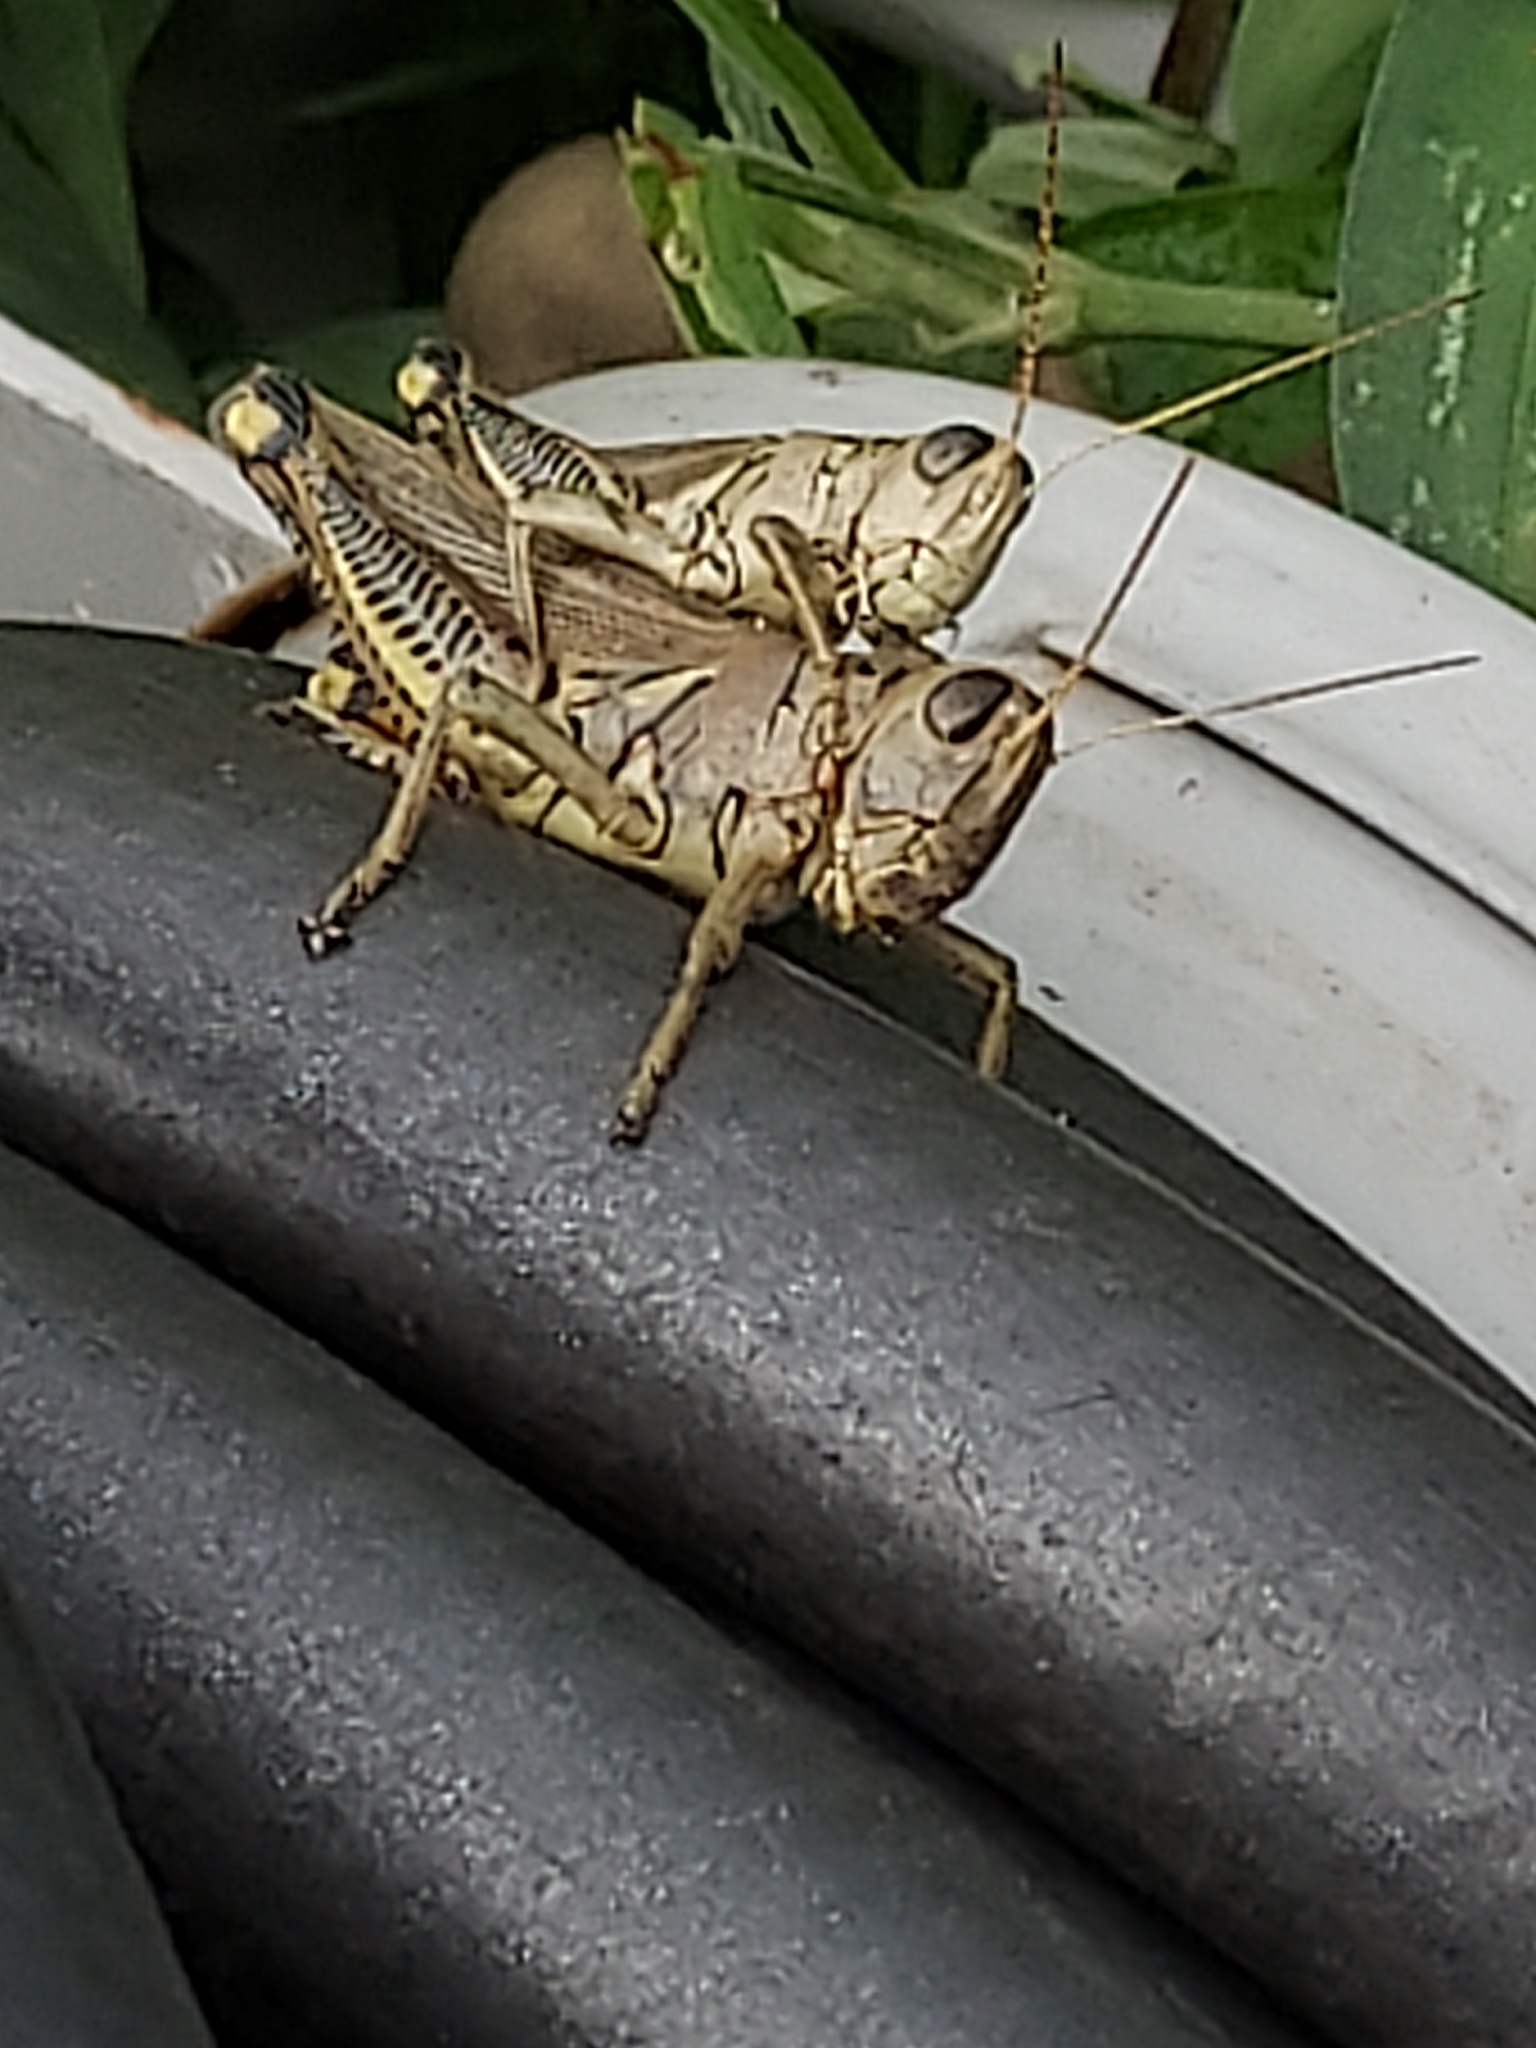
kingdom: Animalia
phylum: Arthropoda
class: Insecta
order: Orthoptera
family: Acrididae
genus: Melanoplus
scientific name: Melanoplus differentialis
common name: Differential grasshopper
